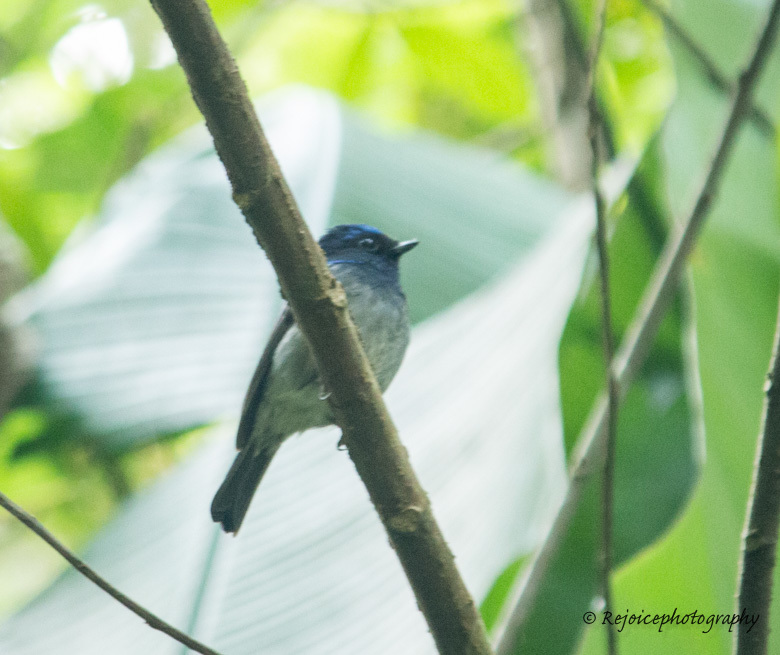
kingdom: Animalia
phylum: Chordata
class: Aves
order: Passeriformes
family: Muscicapidae
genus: Niltava
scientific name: Niltava macgrigoriae
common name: Small niltava
